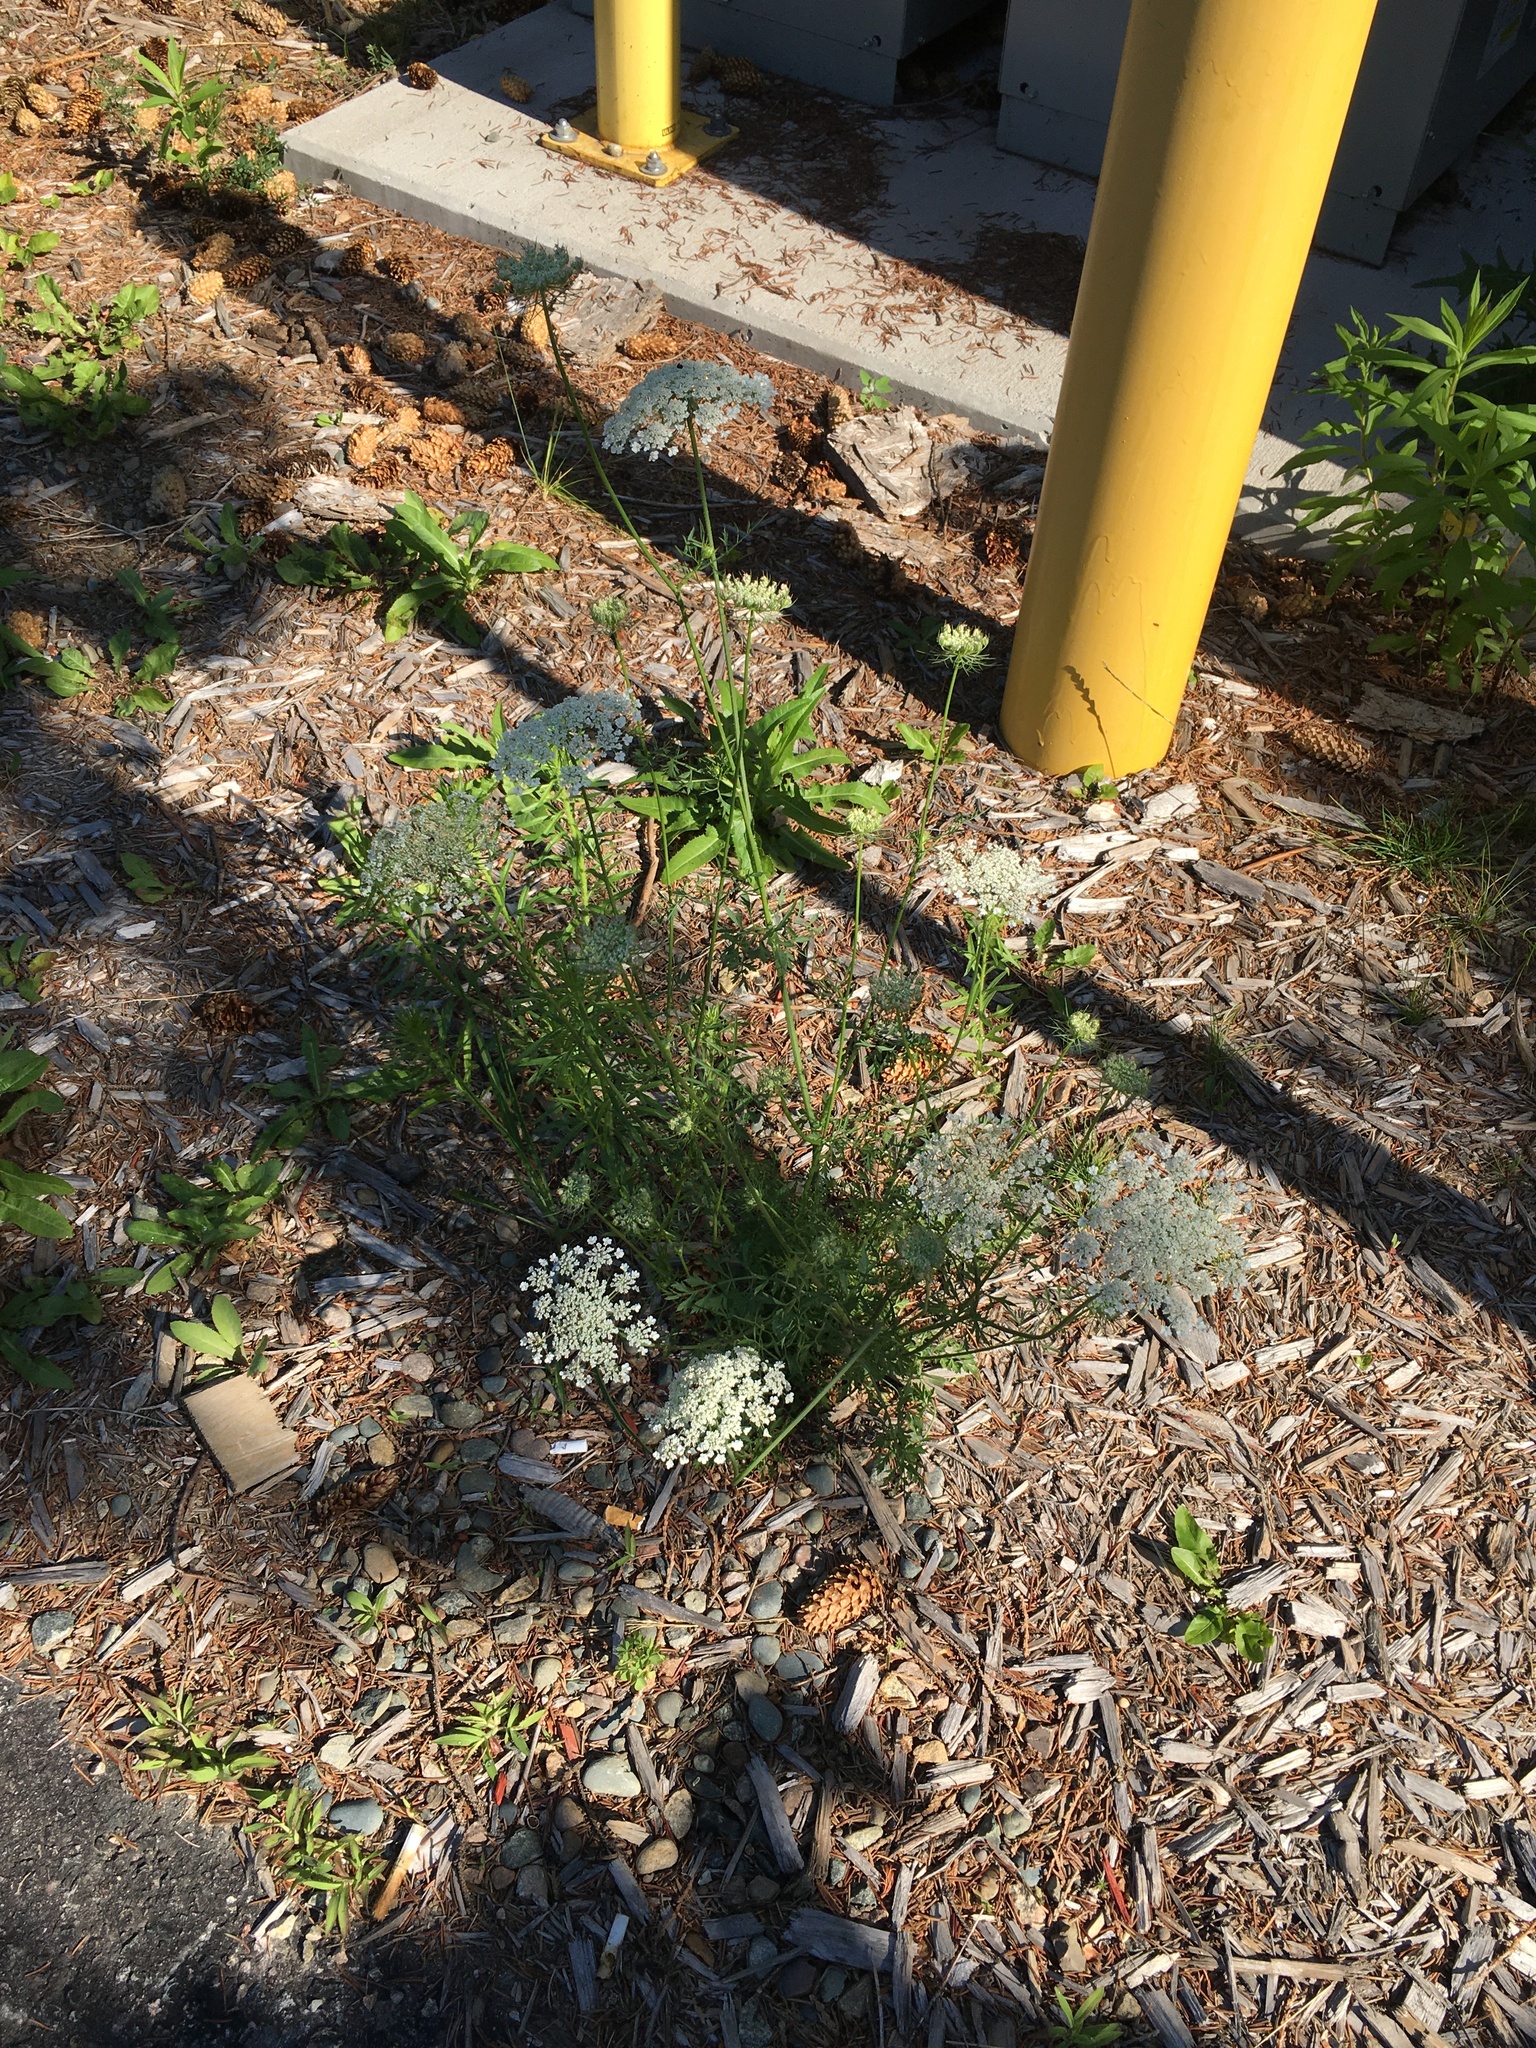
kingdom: Plantae
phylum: Tracheophyta
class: Magnoliopsida
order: Apiales
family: Apiaceae
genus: Daucus
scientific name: Daucus carota
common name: Wild carrot
